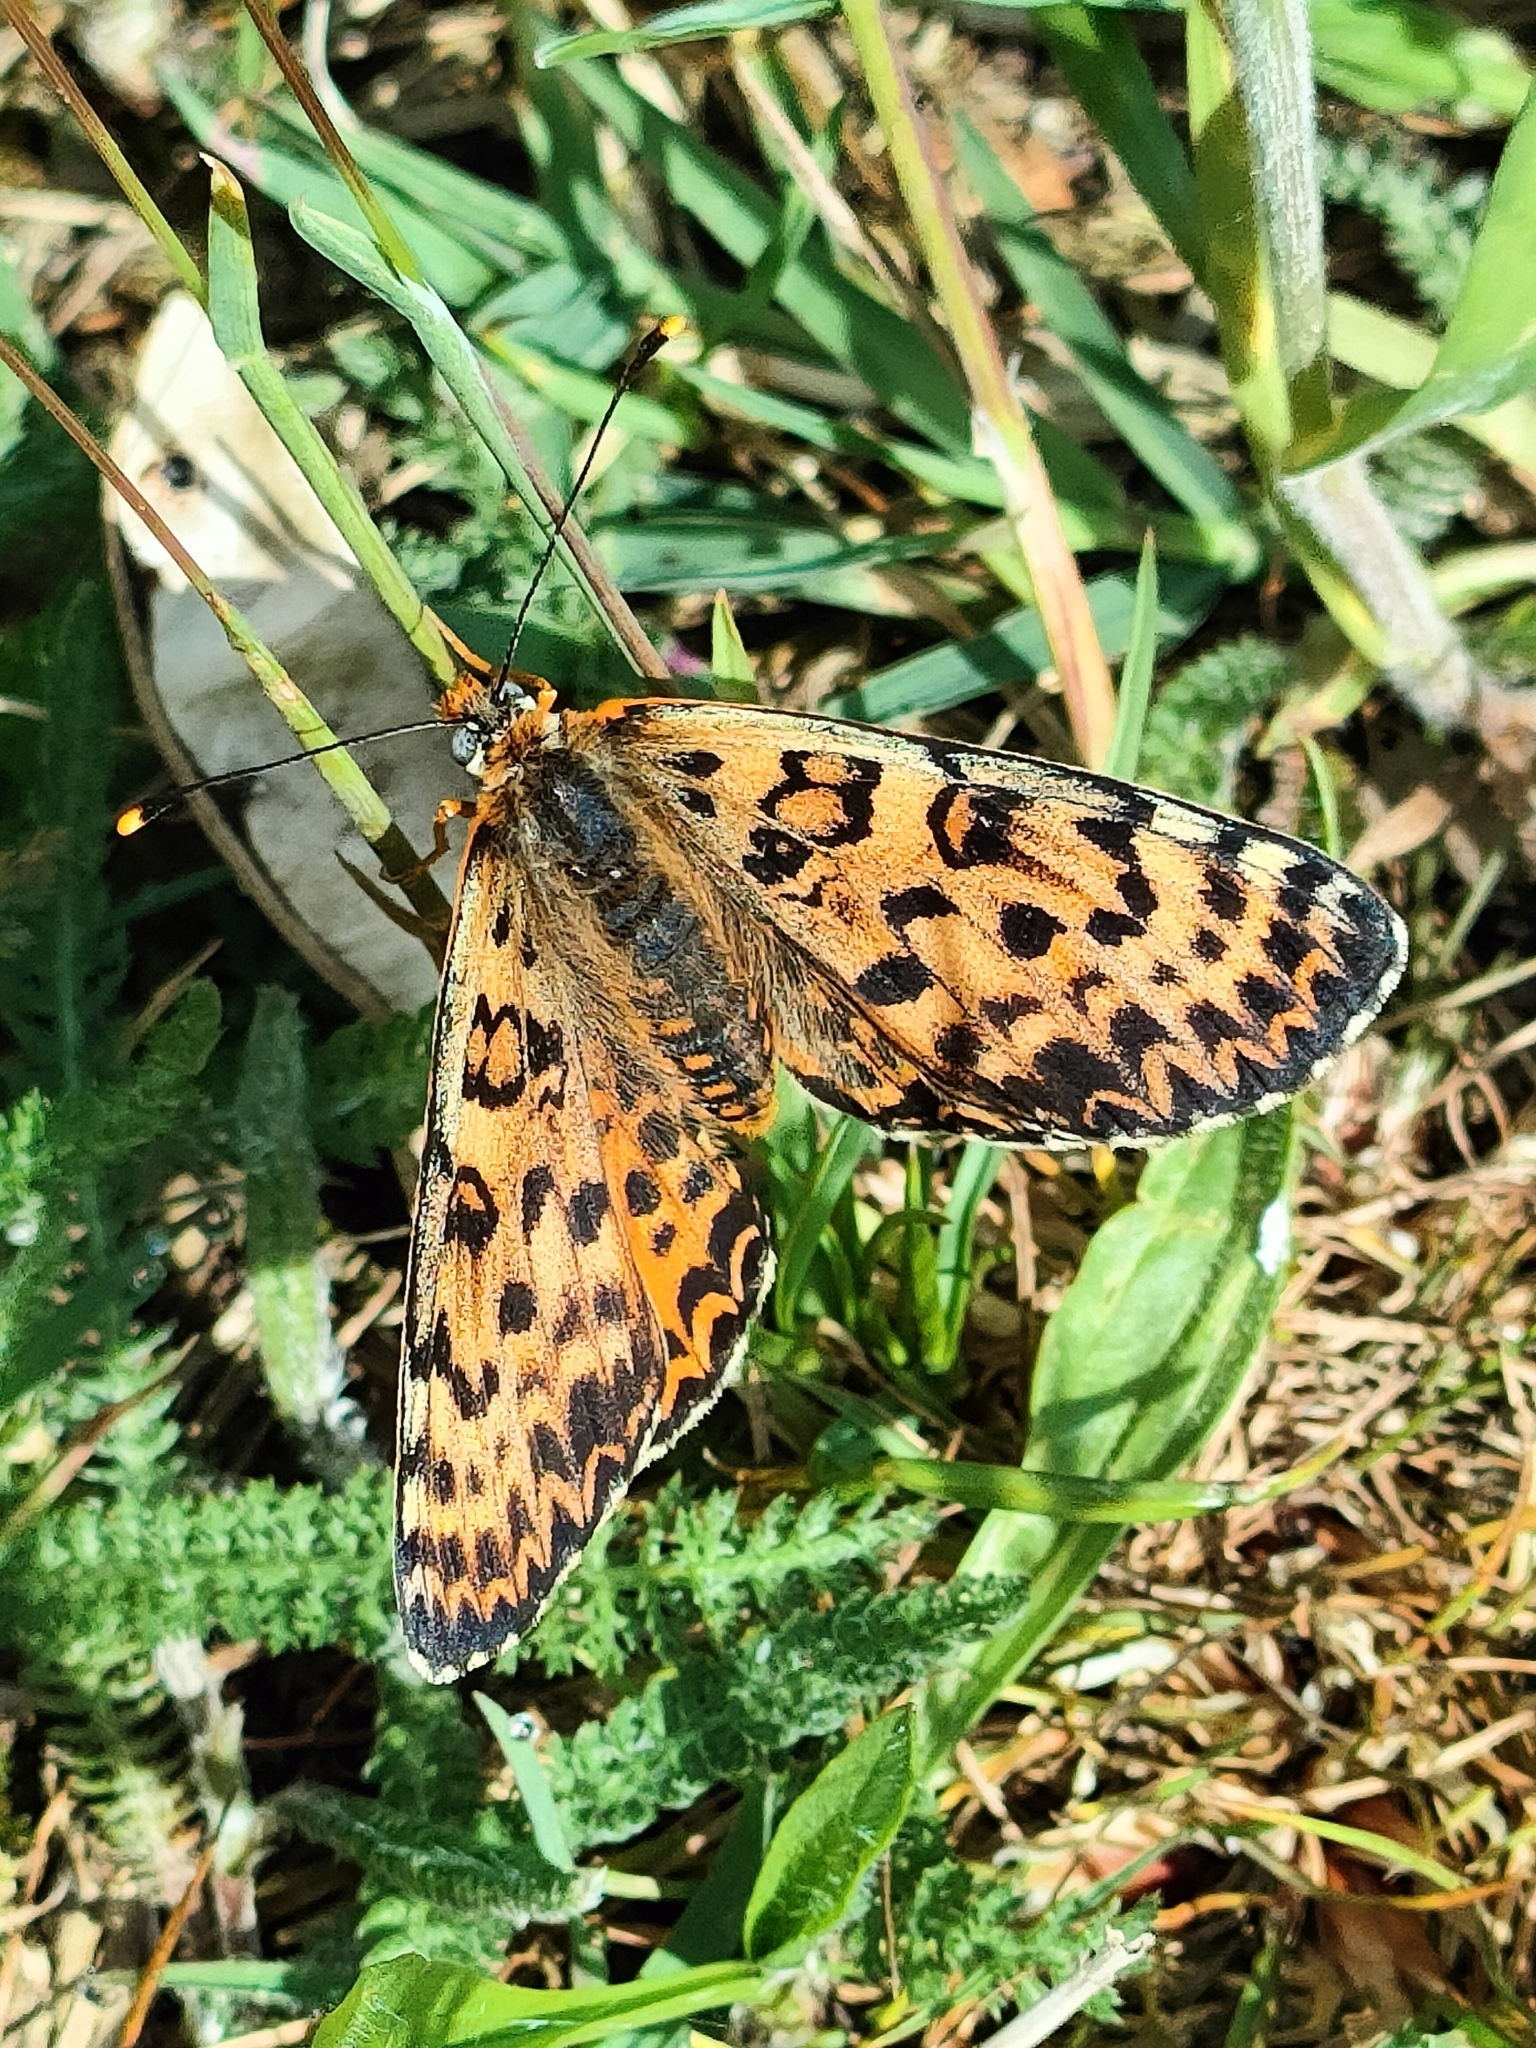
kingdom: Animalia
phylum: Arthropoda
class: Insecta
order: Lepidoptera
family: Nymphalidae
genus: Melitaea
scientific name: Melitaea didyma
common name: Spotted fritillary
